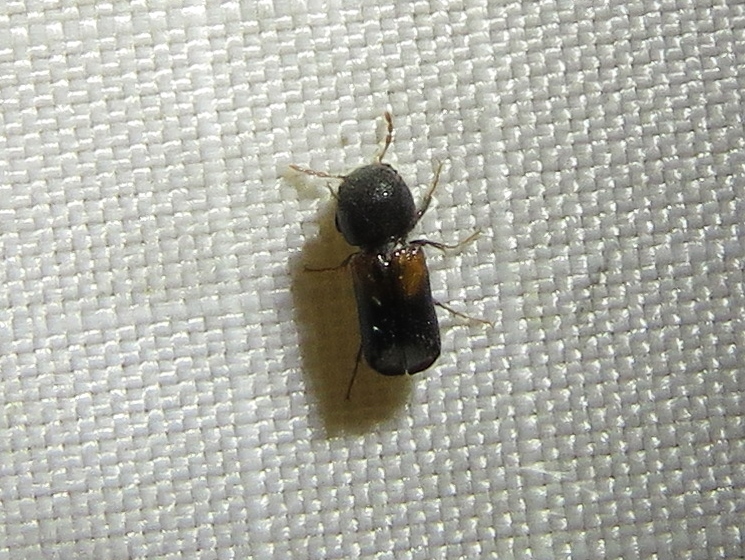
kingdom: Animalia
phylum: Arthropoda
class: Insecta
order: Coleoptera
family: Bostrichidae
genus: Xylobiops
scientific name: Xylobiops basilaris
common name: Red-shouldered bostrichid
